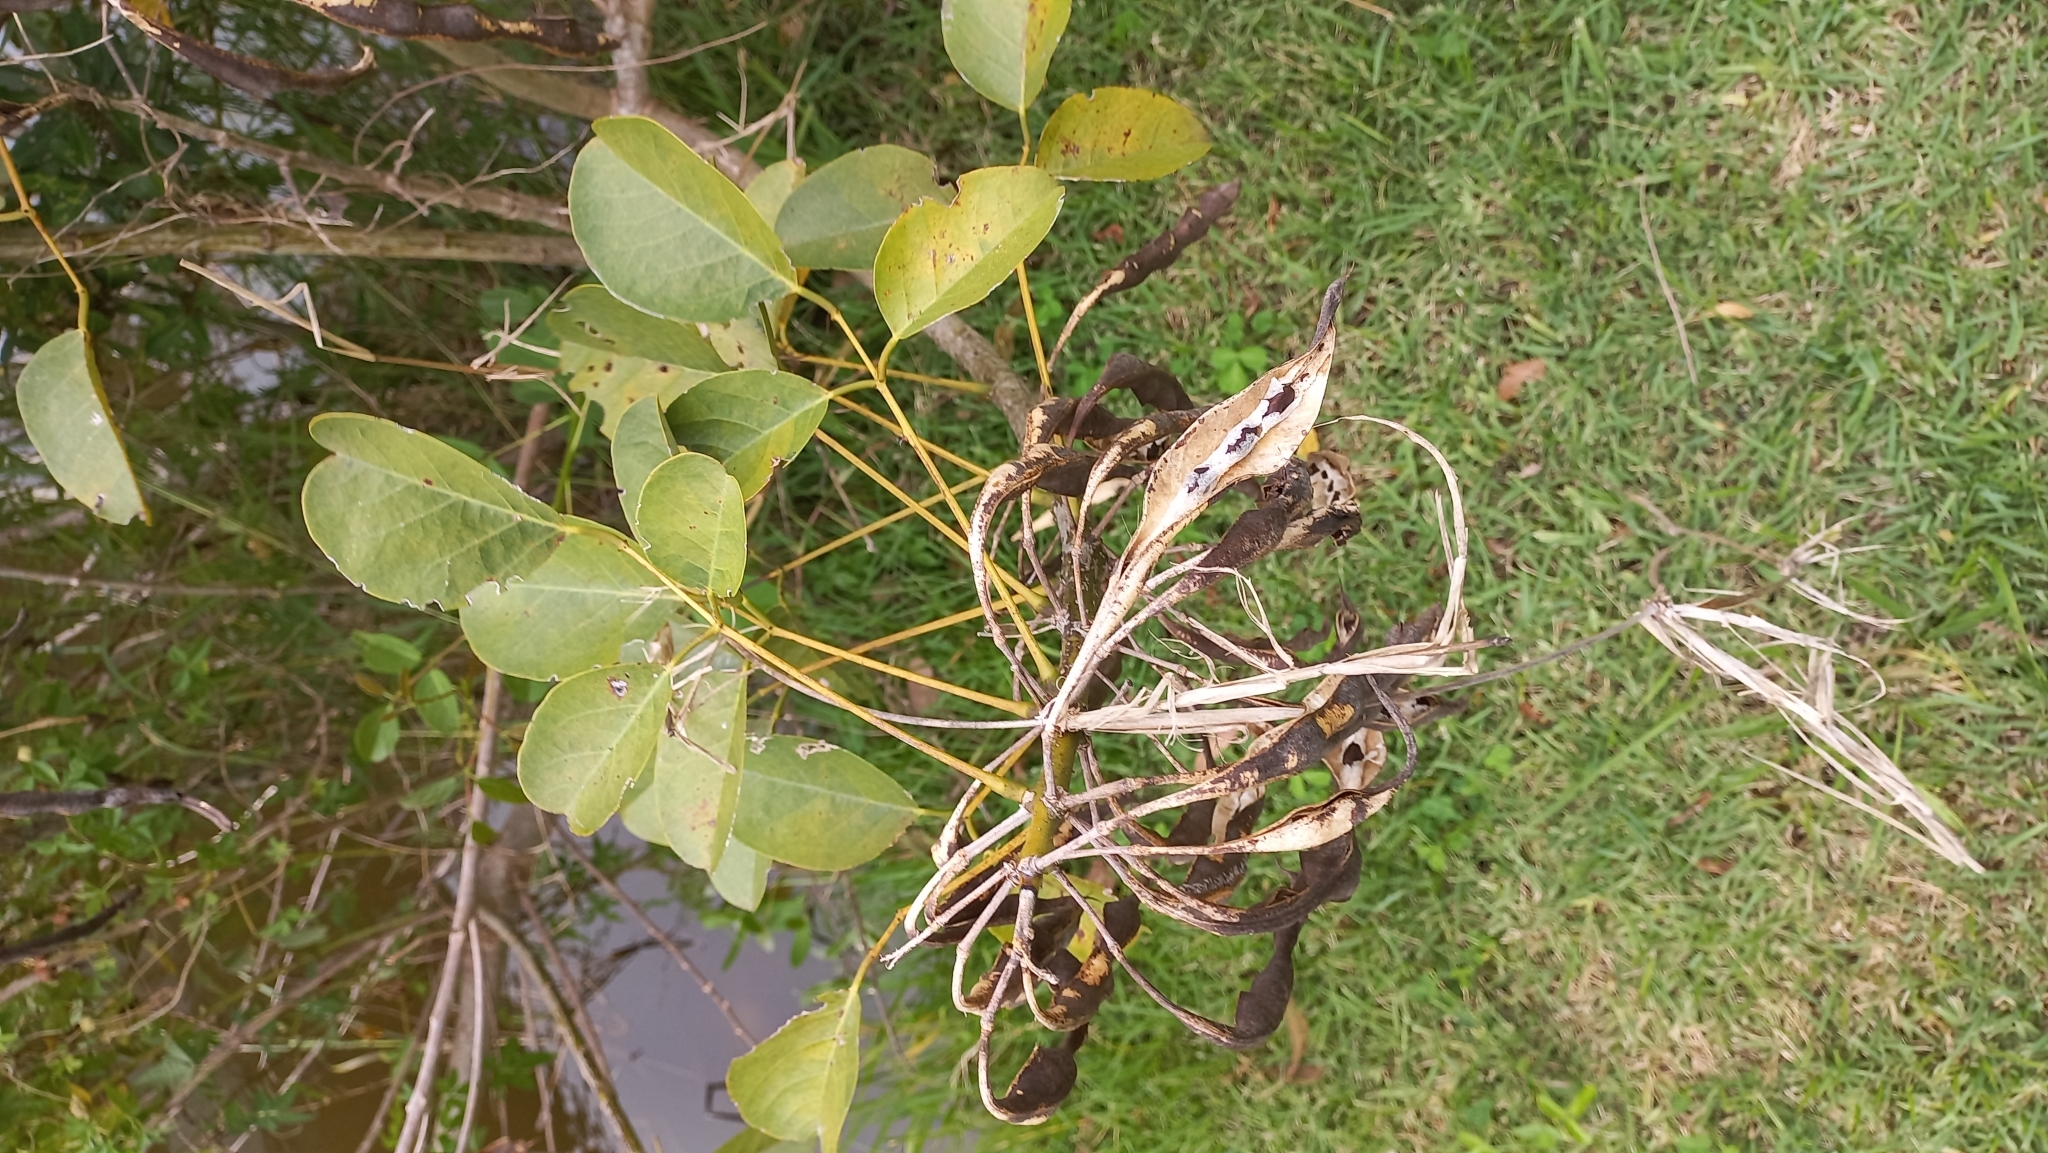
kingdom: Plantae
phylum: Tracheophyta
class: Magnoliopsida
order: Fabales
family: Fabaceae
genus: Erythrina
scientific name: Erythrina crista-galli
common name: Cockspur coral tree
